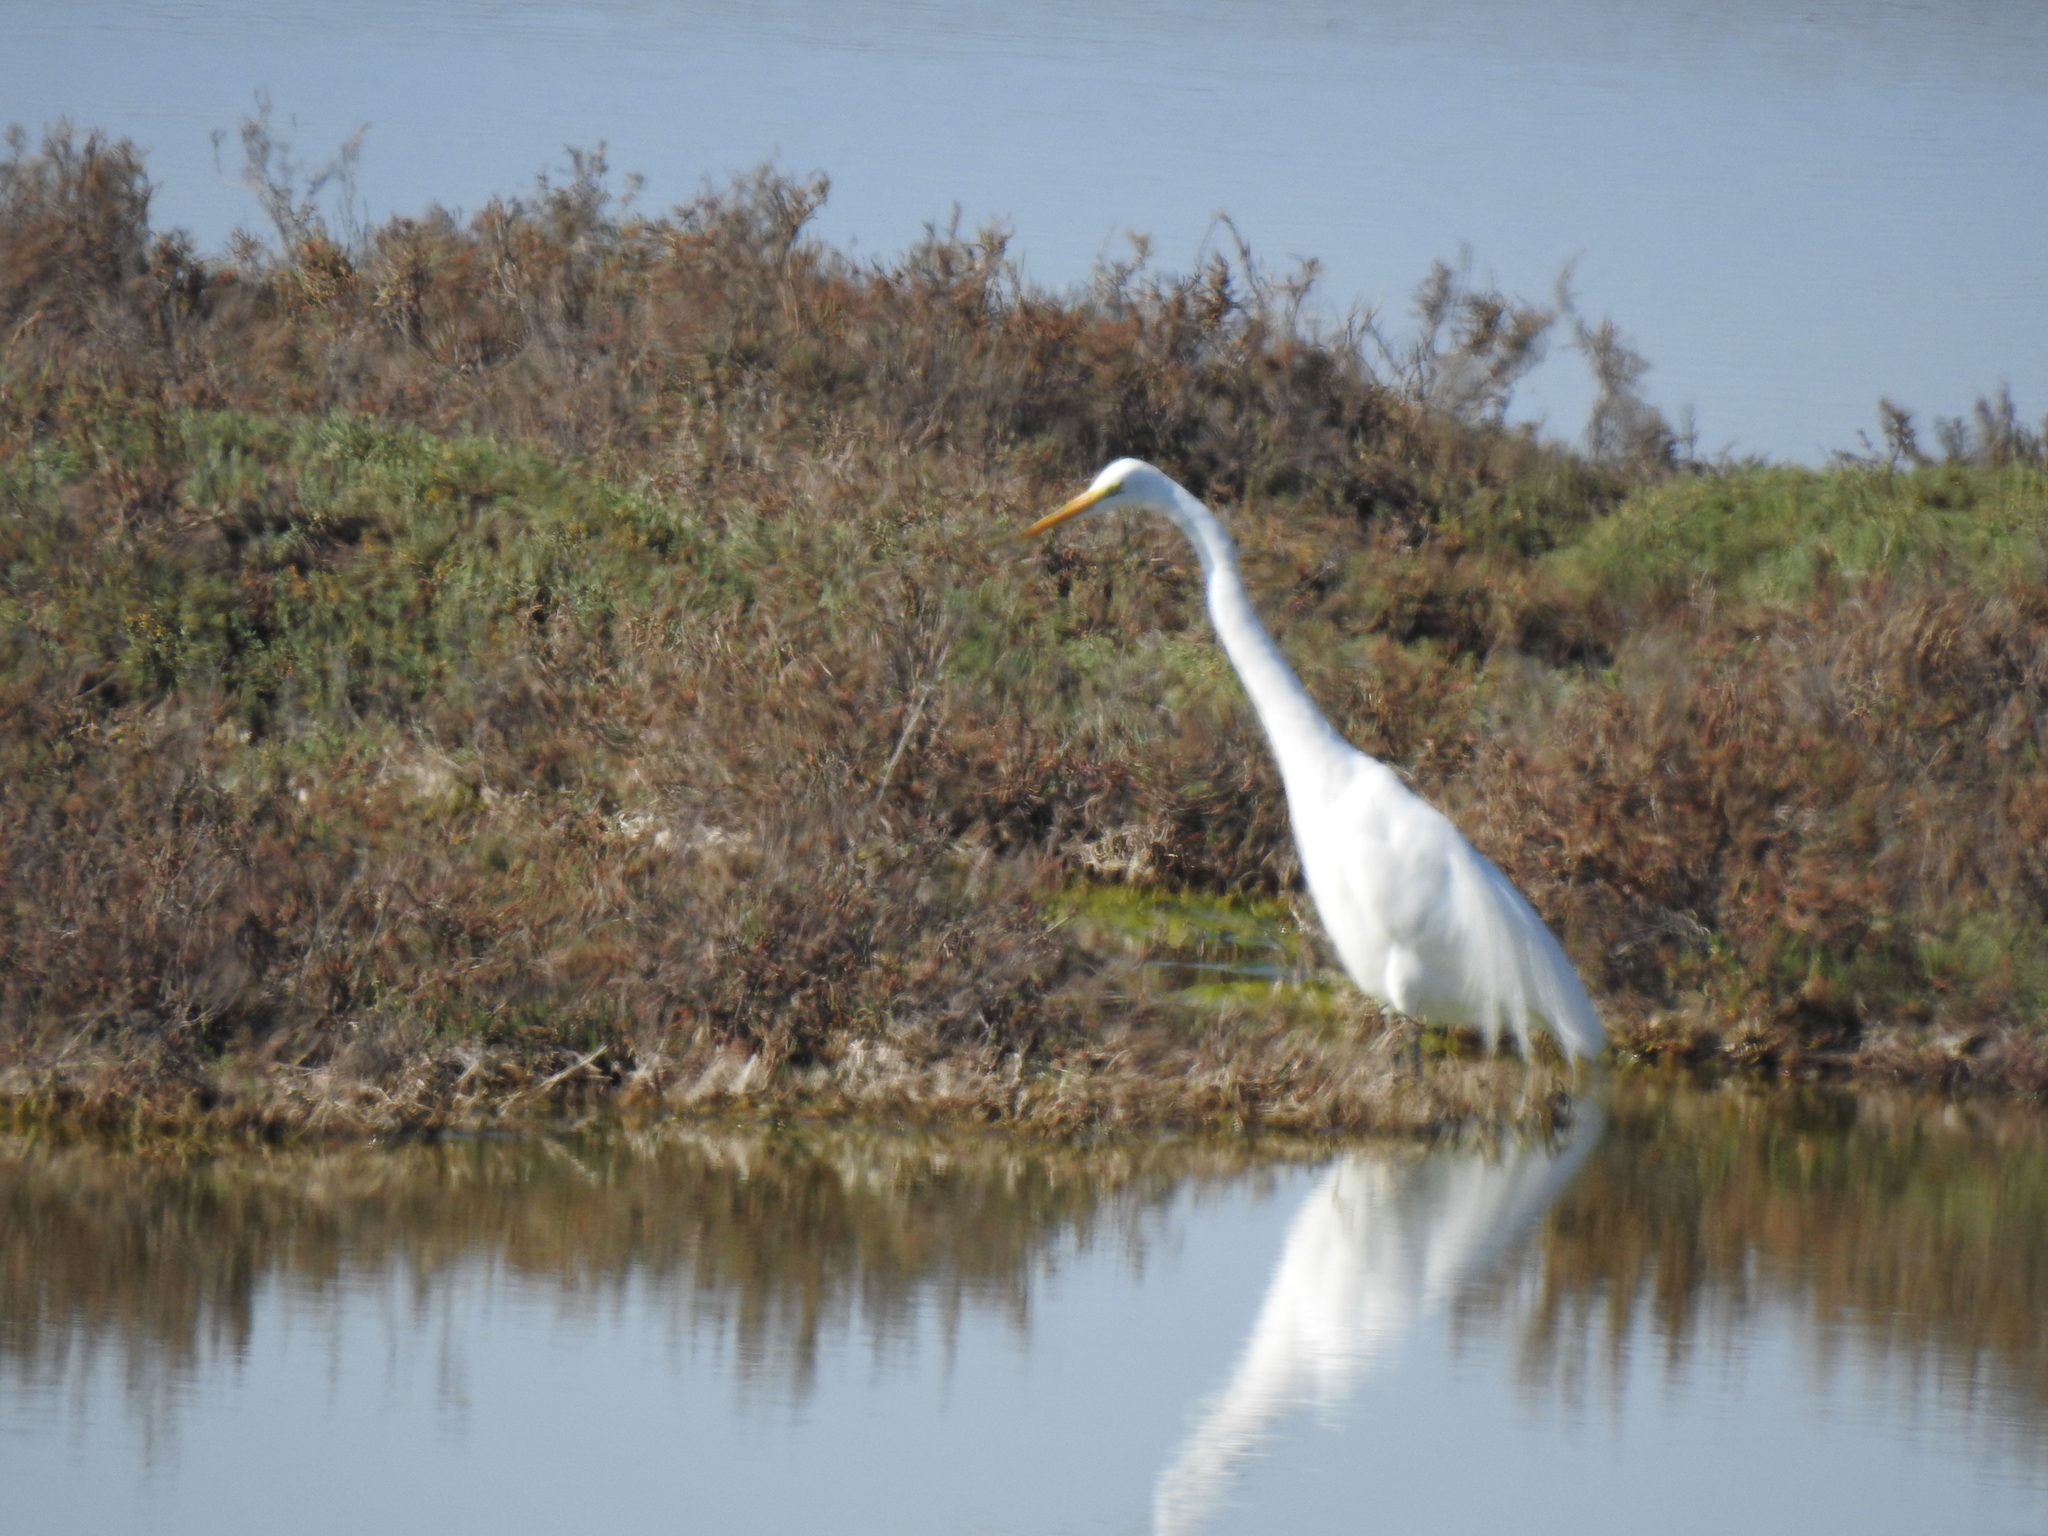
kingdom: Animalia
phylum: Chordata
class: Aves
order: Pelecaniformes
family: Ardeidae
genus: Ardea
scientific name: Ardea alba
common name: Great egret
